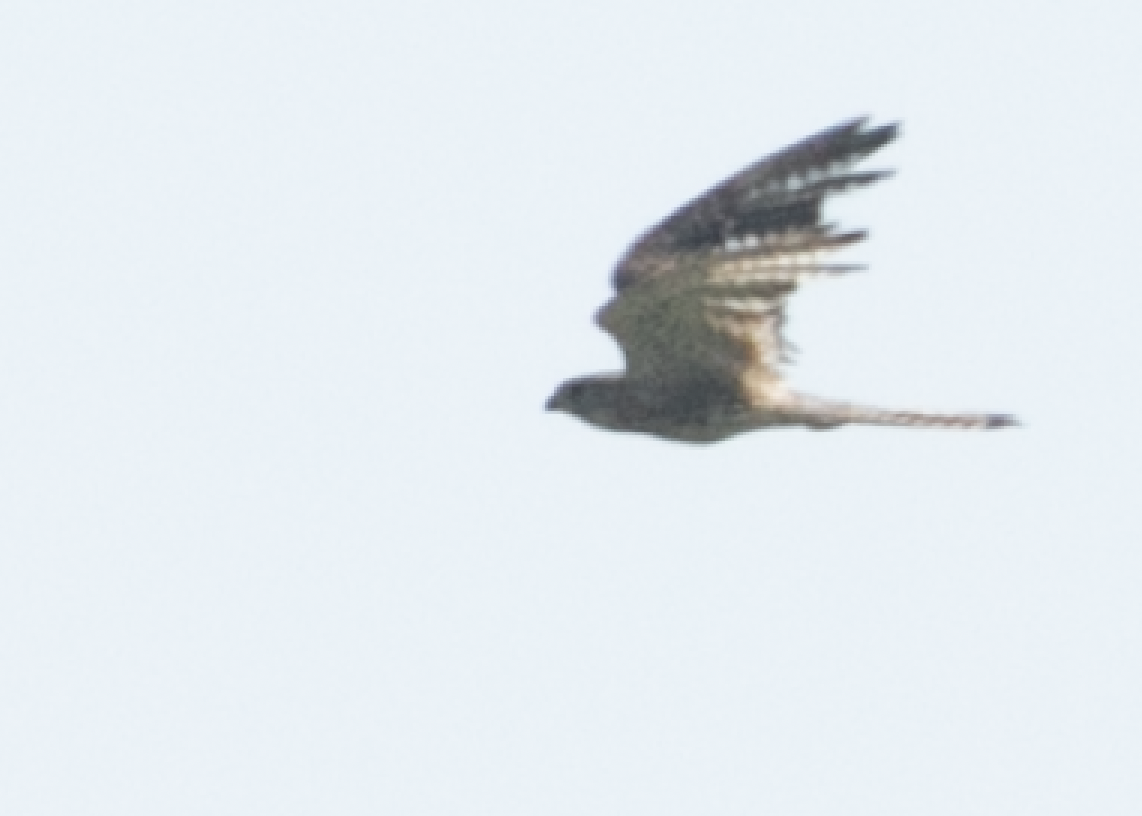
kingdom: Animalia
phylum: Chordata
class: Aves
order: Falconiformes
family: Falconidae
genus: Falco
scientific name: Falco tinnunculus
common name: Common kestrel
